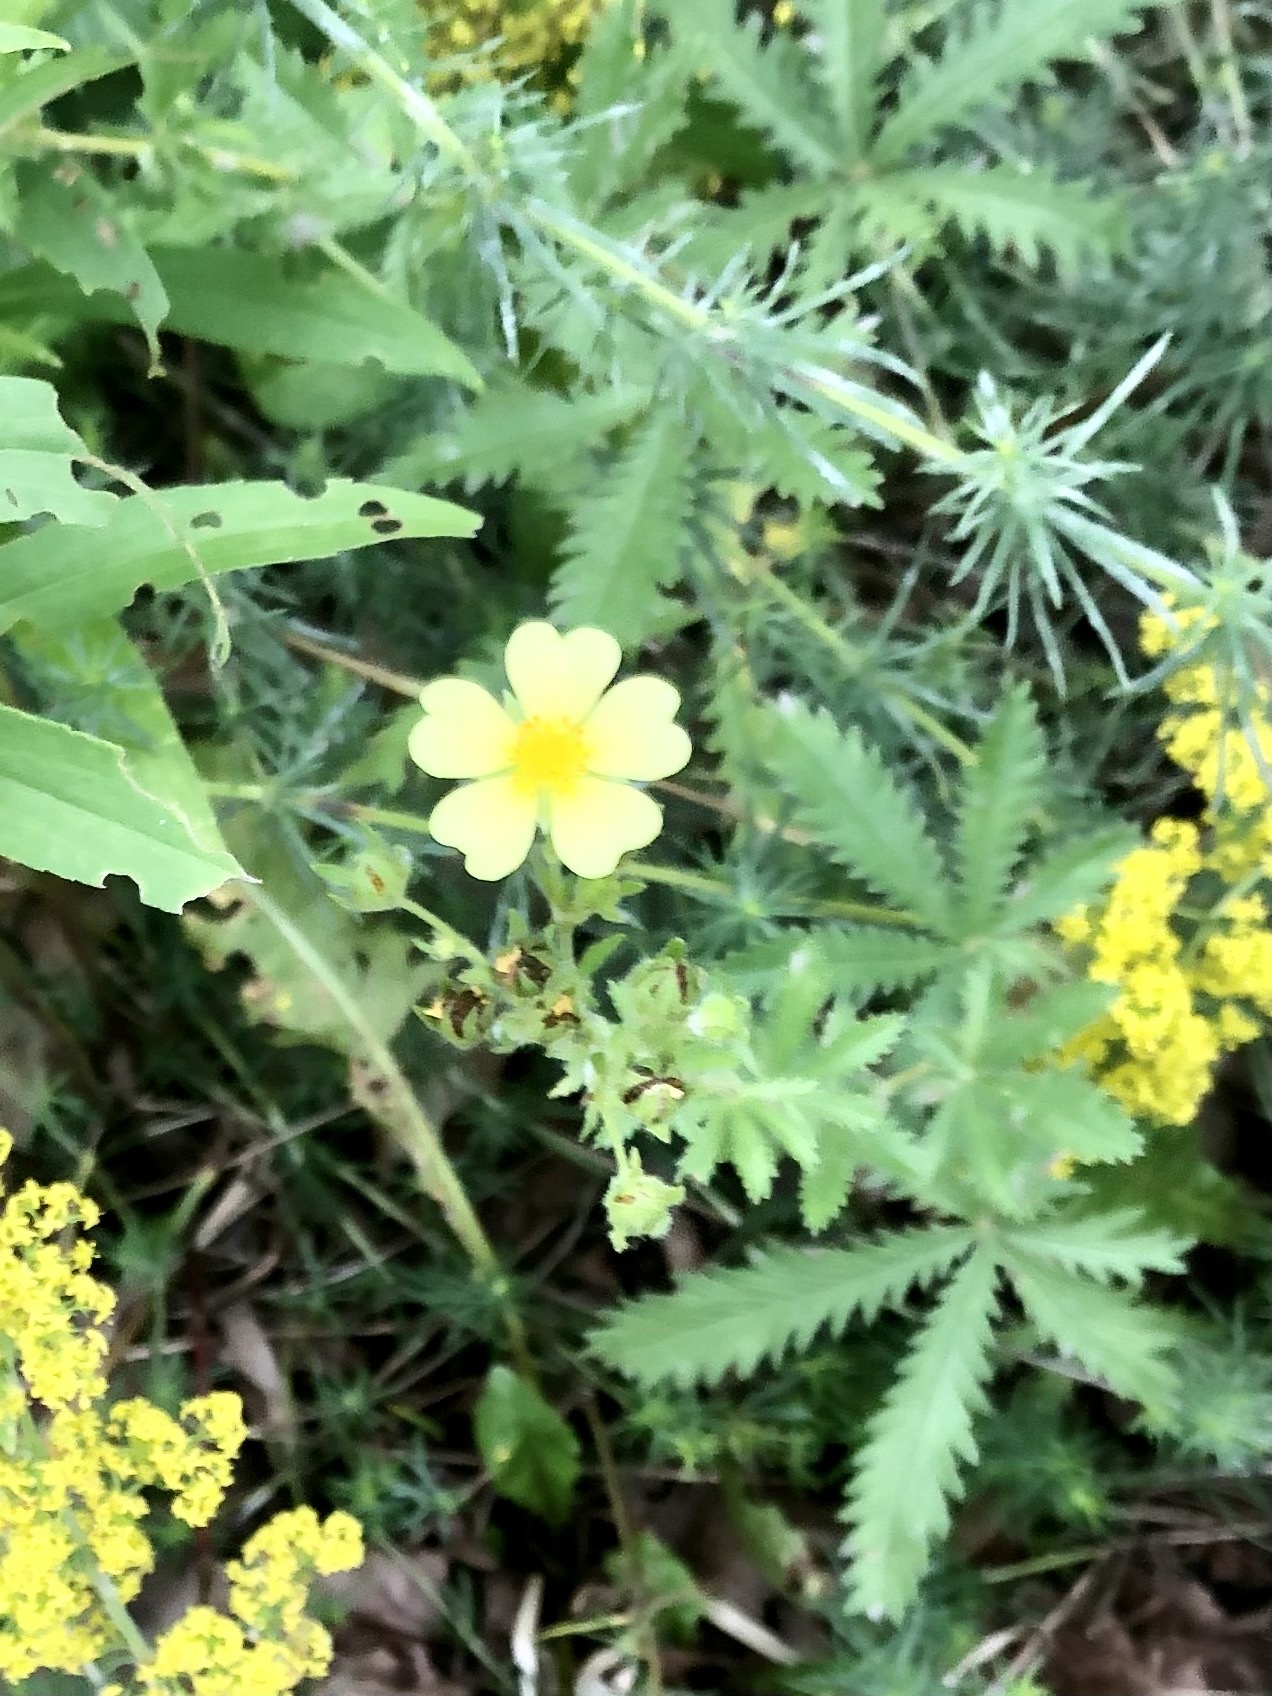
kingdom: Plantae
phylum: Tracheophyta
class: Magnoliopsida
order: Rosales
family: Rosaceae
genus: Potentilla
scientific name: Potentilla recta
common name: Sulphur cinquefoil
